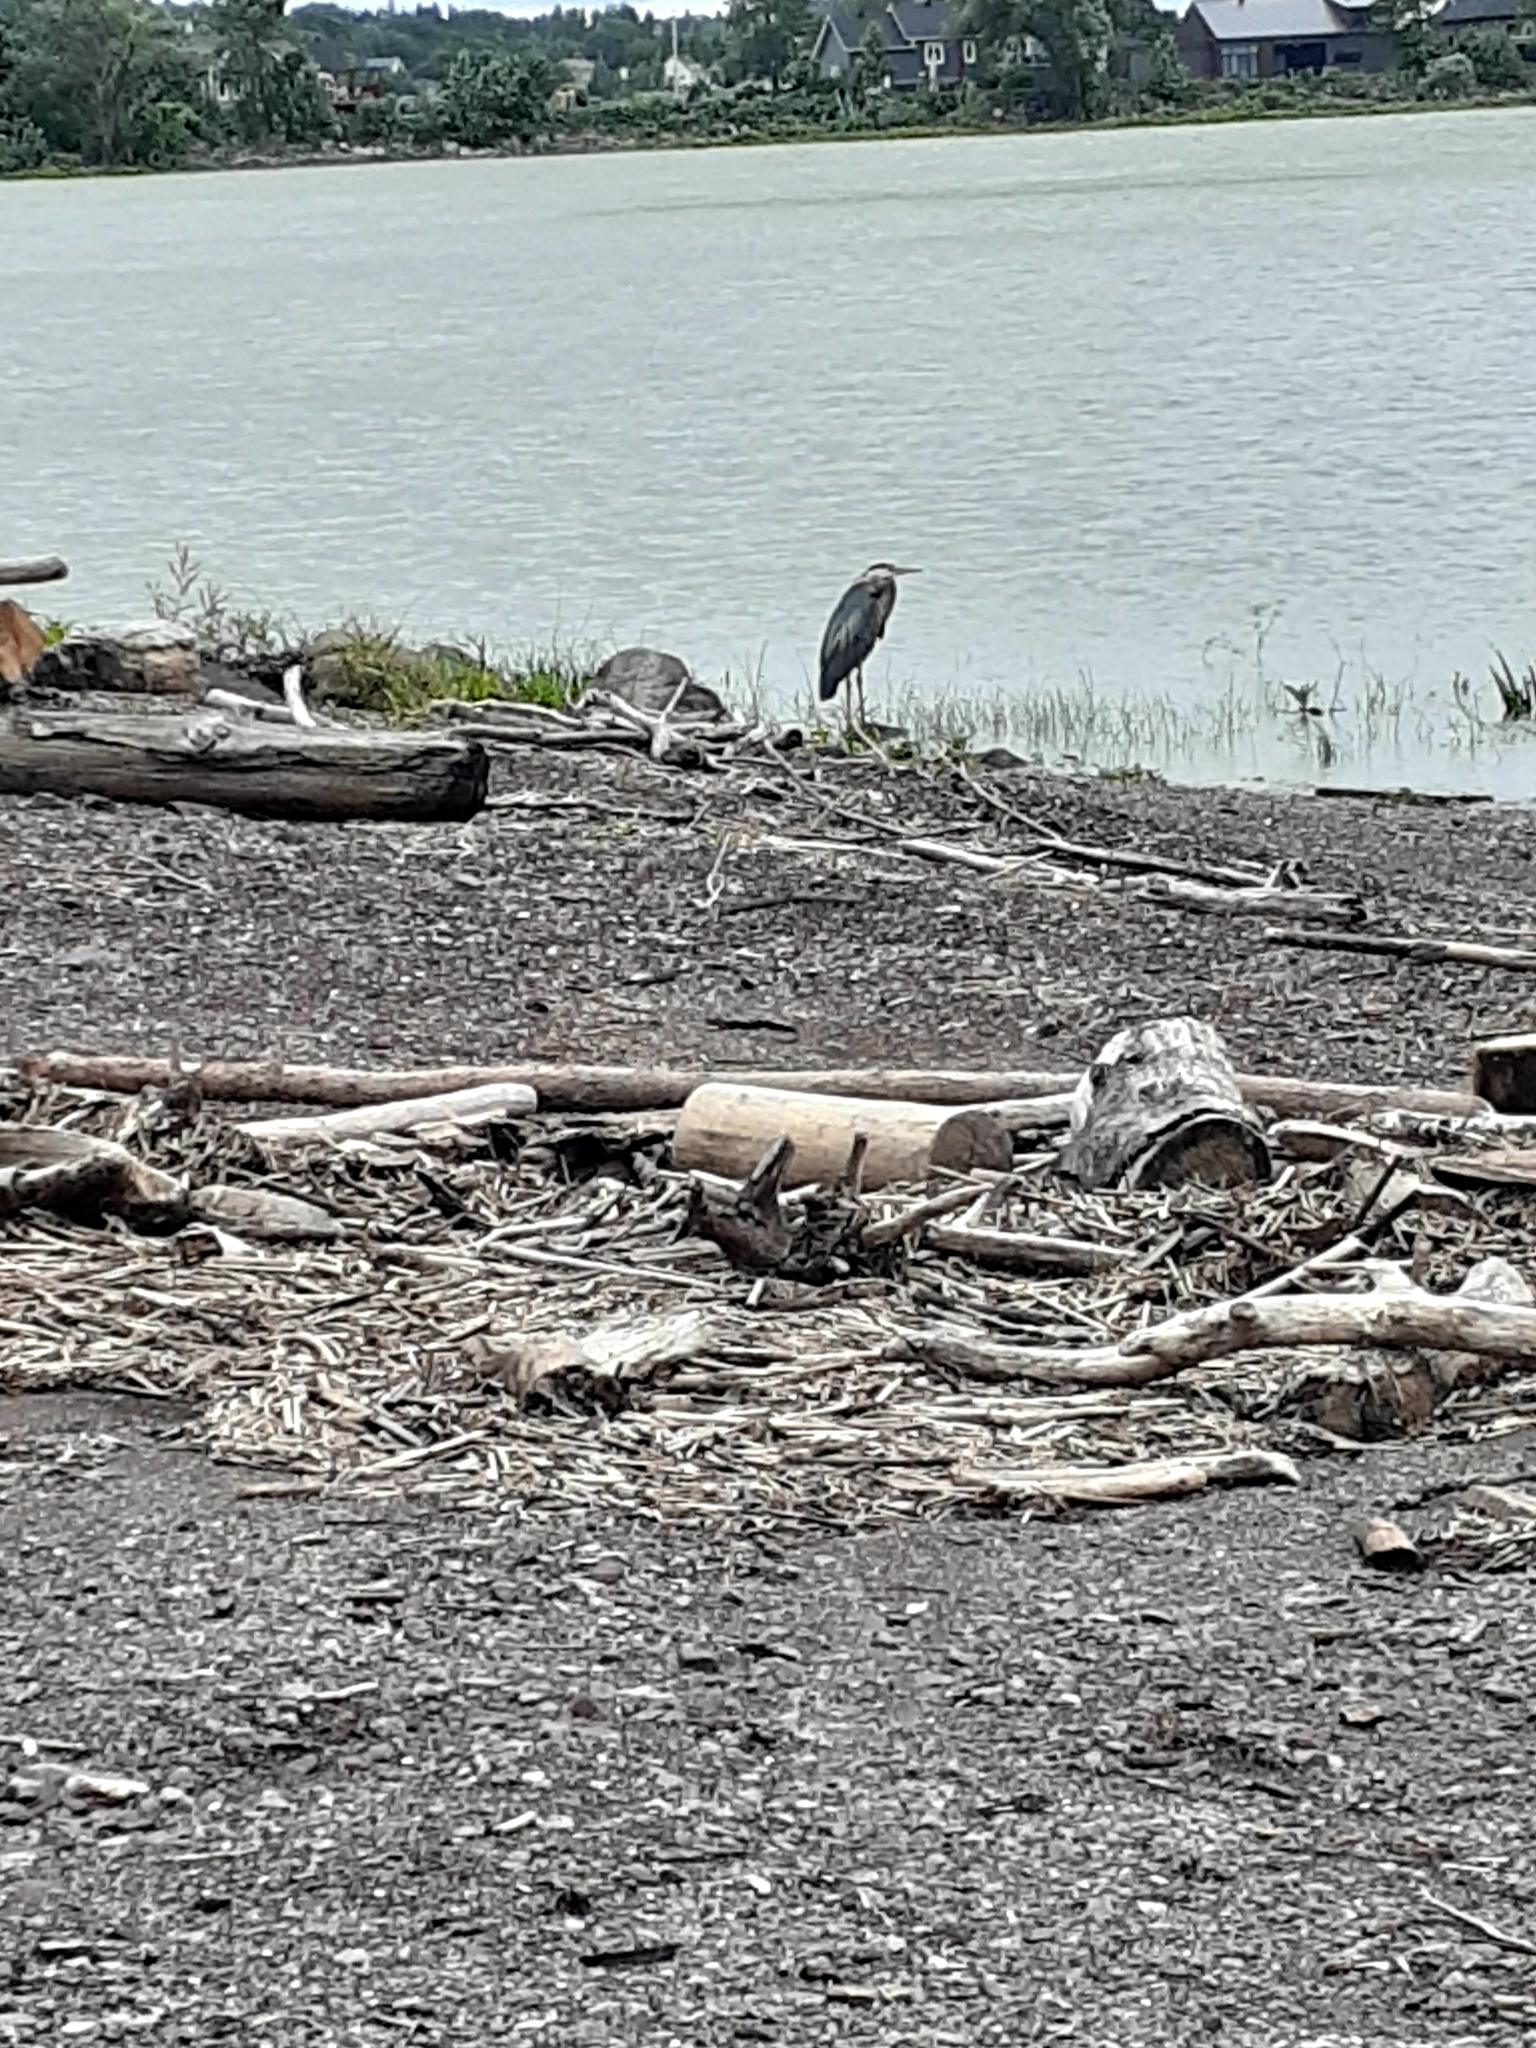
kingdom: Animalia
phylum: Chordata
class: Aves
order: Pelecaniformes
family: Ardeidae
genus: Ardea
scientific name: Ardea herodias
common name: Great blue heron
